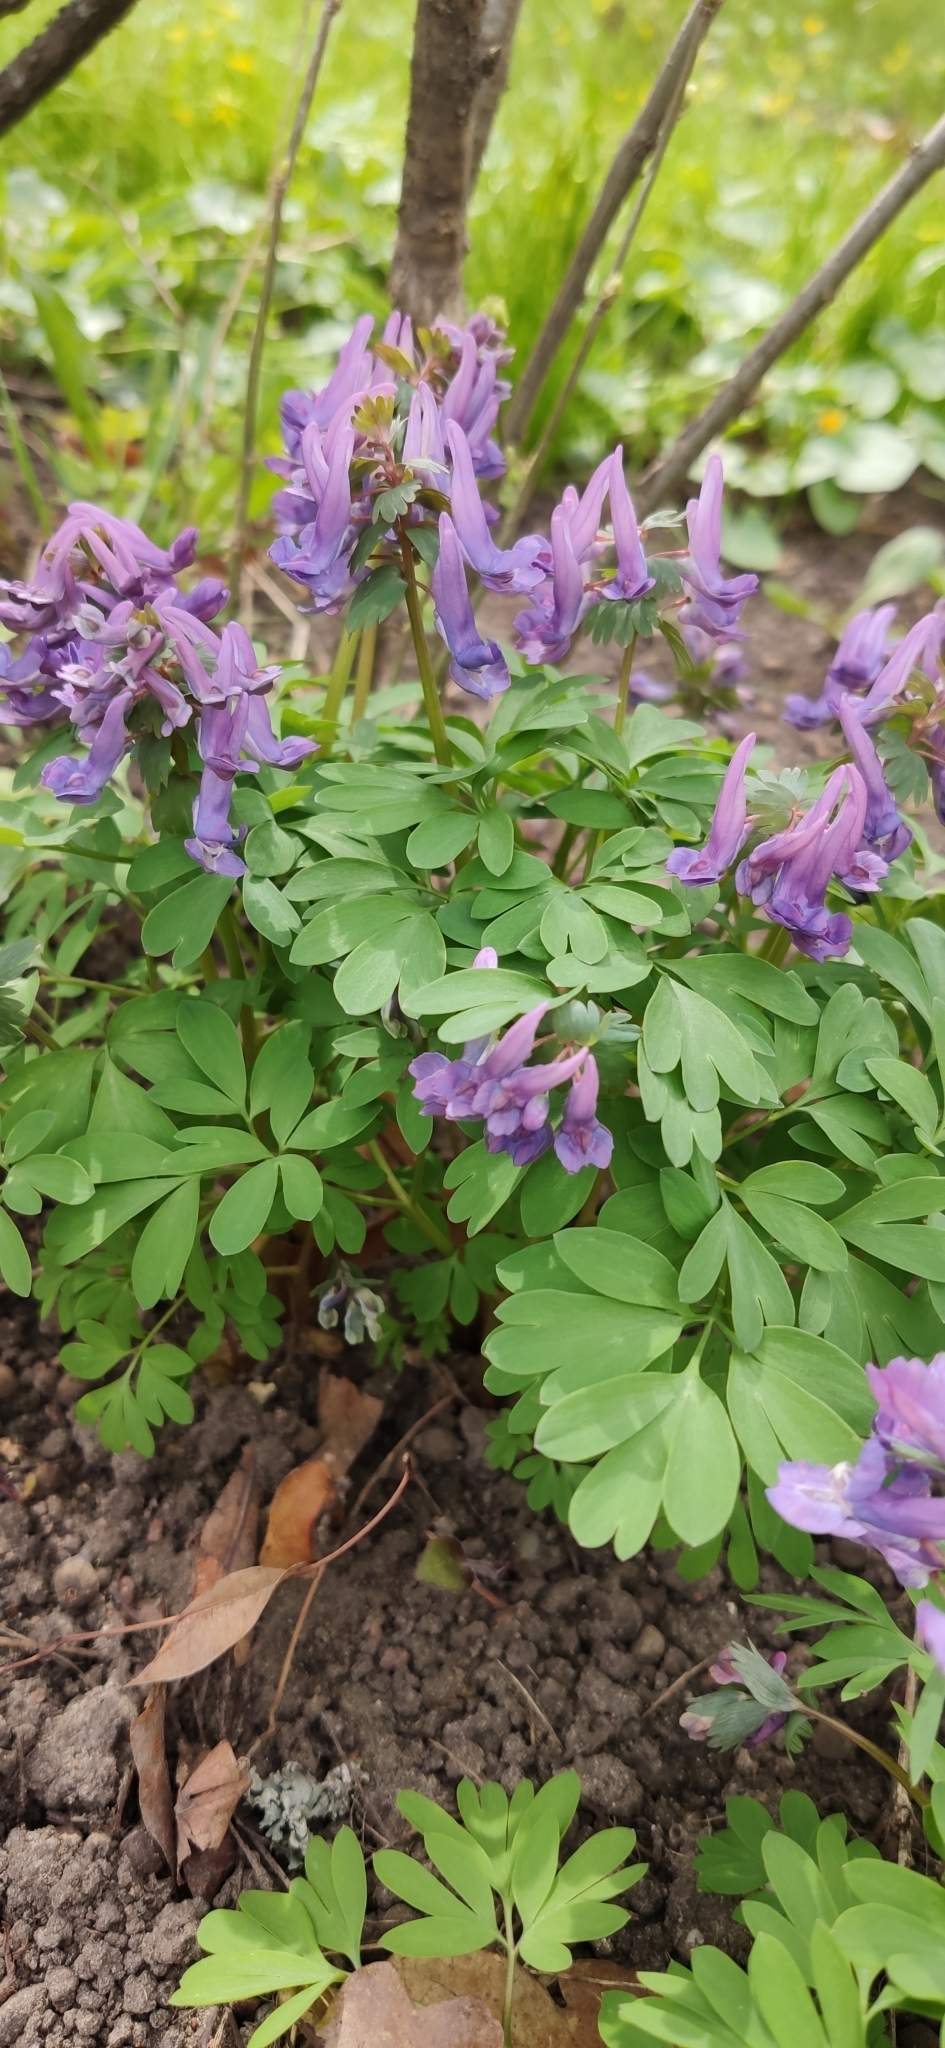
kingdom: Plantae
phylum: Tracheophyta
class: Magnoliopsida
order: Ranunculales
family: Papaveraceae
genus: Corydalis
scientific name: Corydalis solida
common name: Bird-in-a-bush
